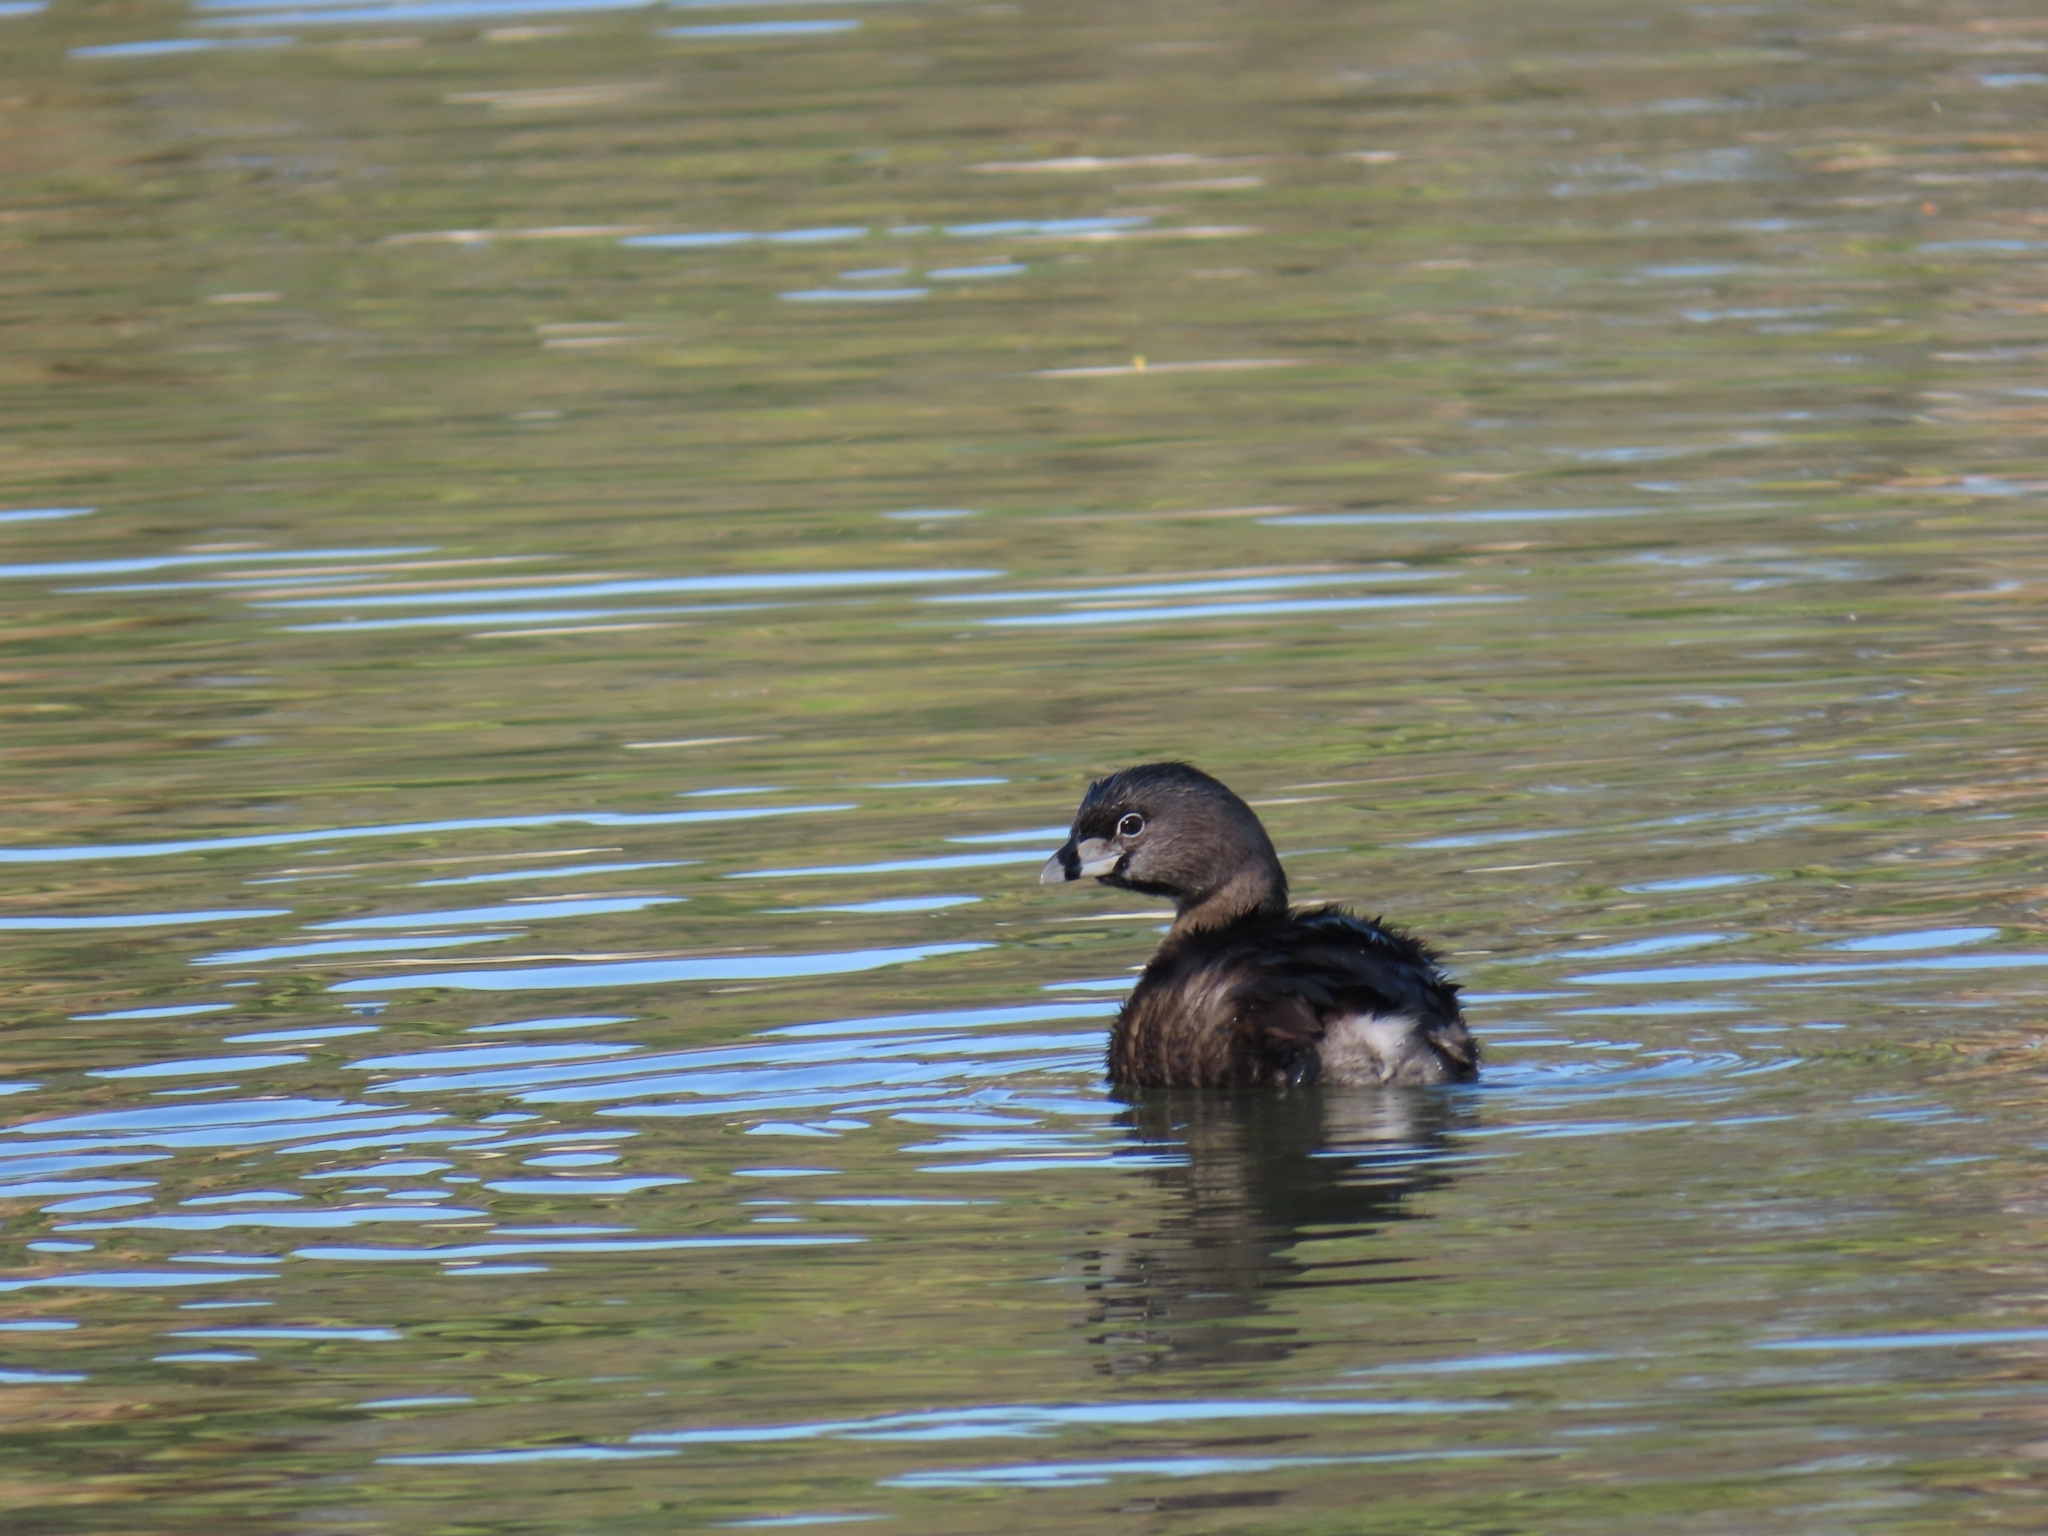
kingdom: Animalia
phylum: Chordata
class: Aves
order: Podicipediformes
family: Podicipedidae
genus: Podilymbus
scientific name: Podilymbus podiceps
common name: Pied-billed grebe
